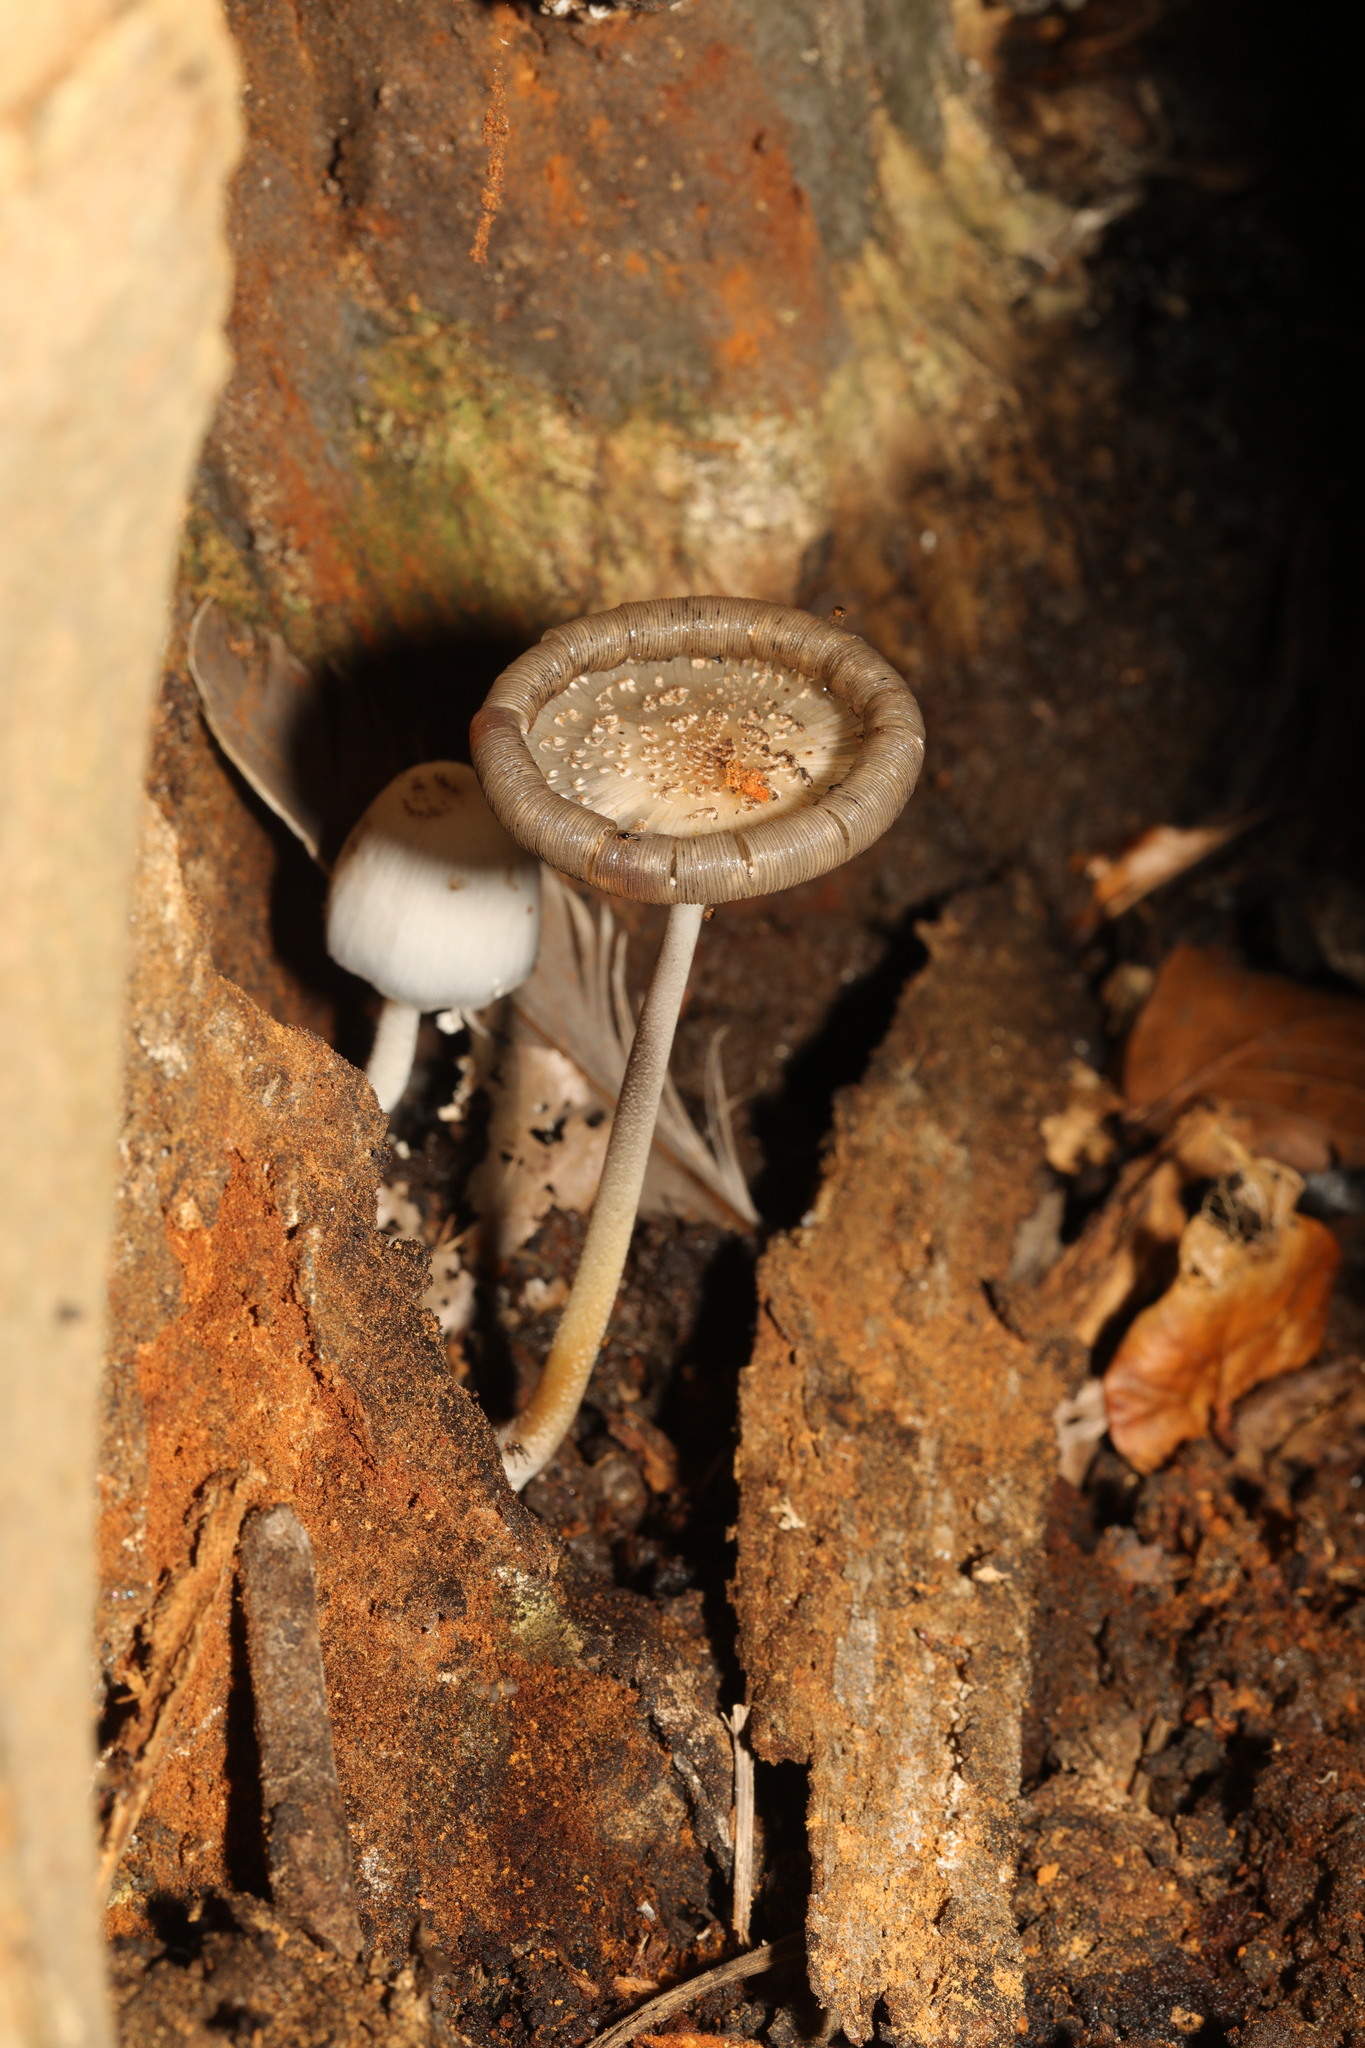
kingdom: Fungi
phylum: Basidiomycota
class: Agaricomycetes
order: Agaricales
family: Psathyrellaceae
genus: Coprinellus
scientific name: Coprinellus
